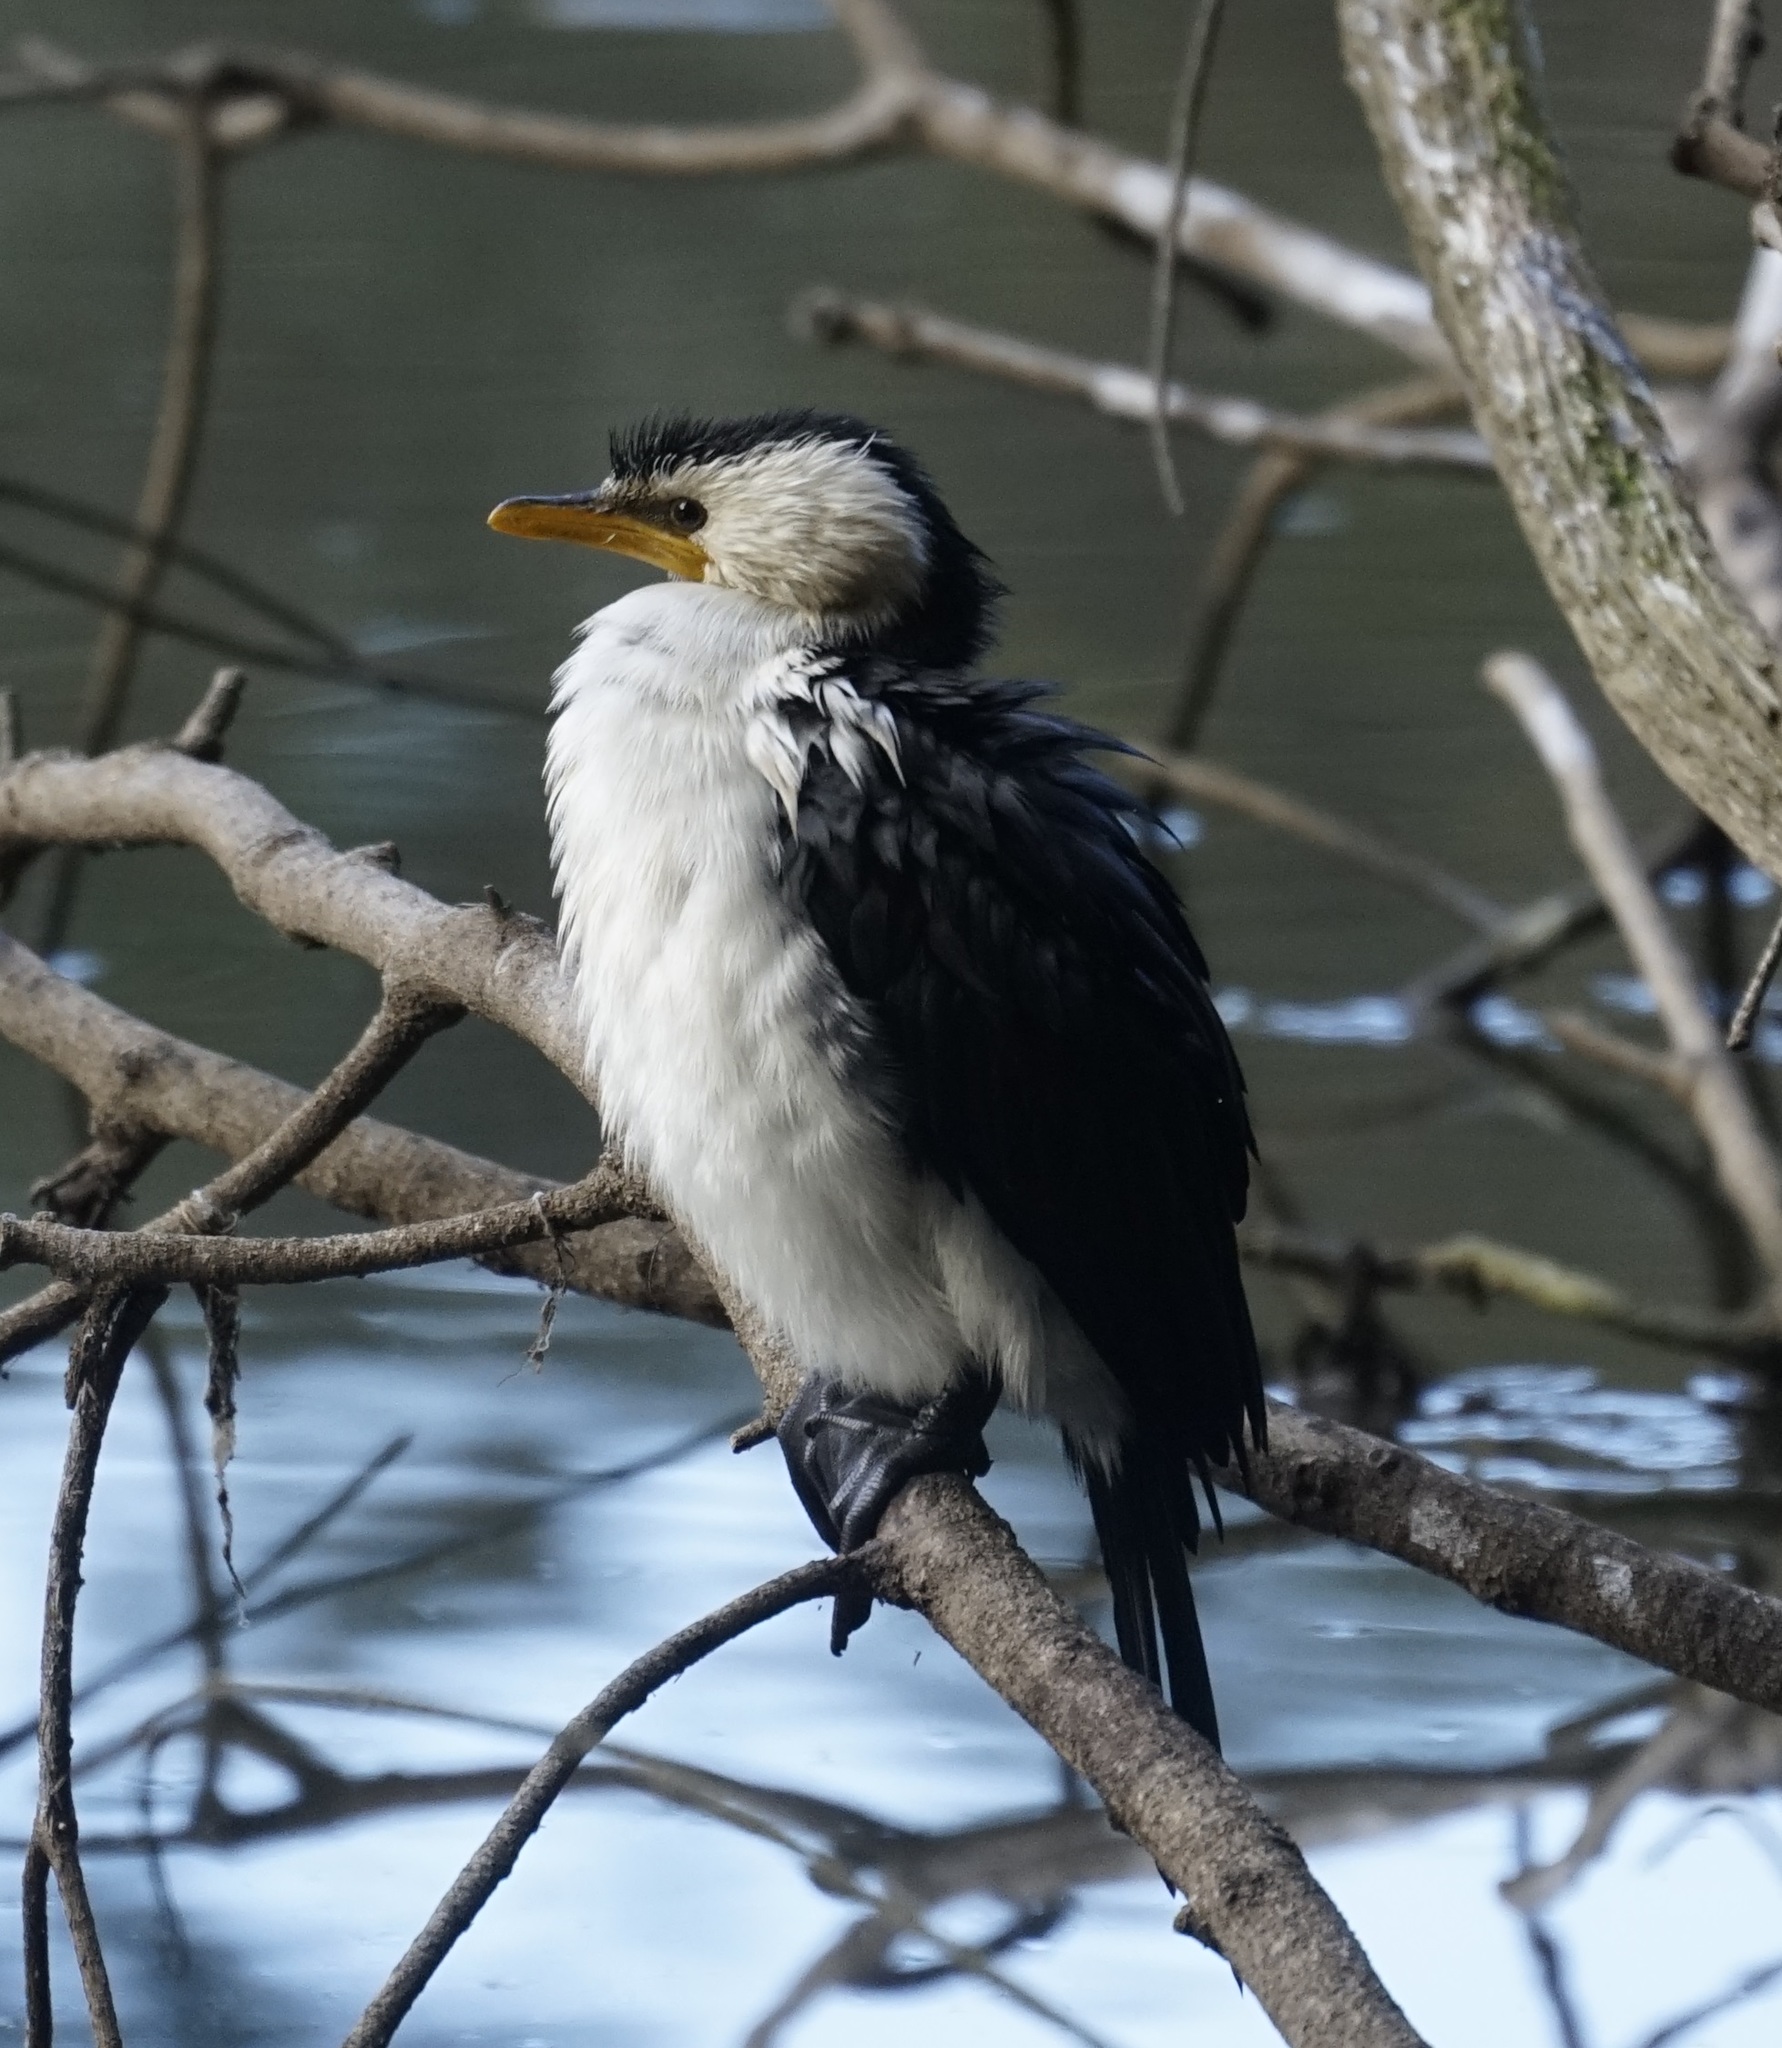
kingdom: Animalia
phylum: Chordata
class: Aves
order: Suliformes
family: Phalacrocoracidae
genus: Microcarbo
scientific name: Microcarbo melanoleucos
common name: Little pied cormorant
